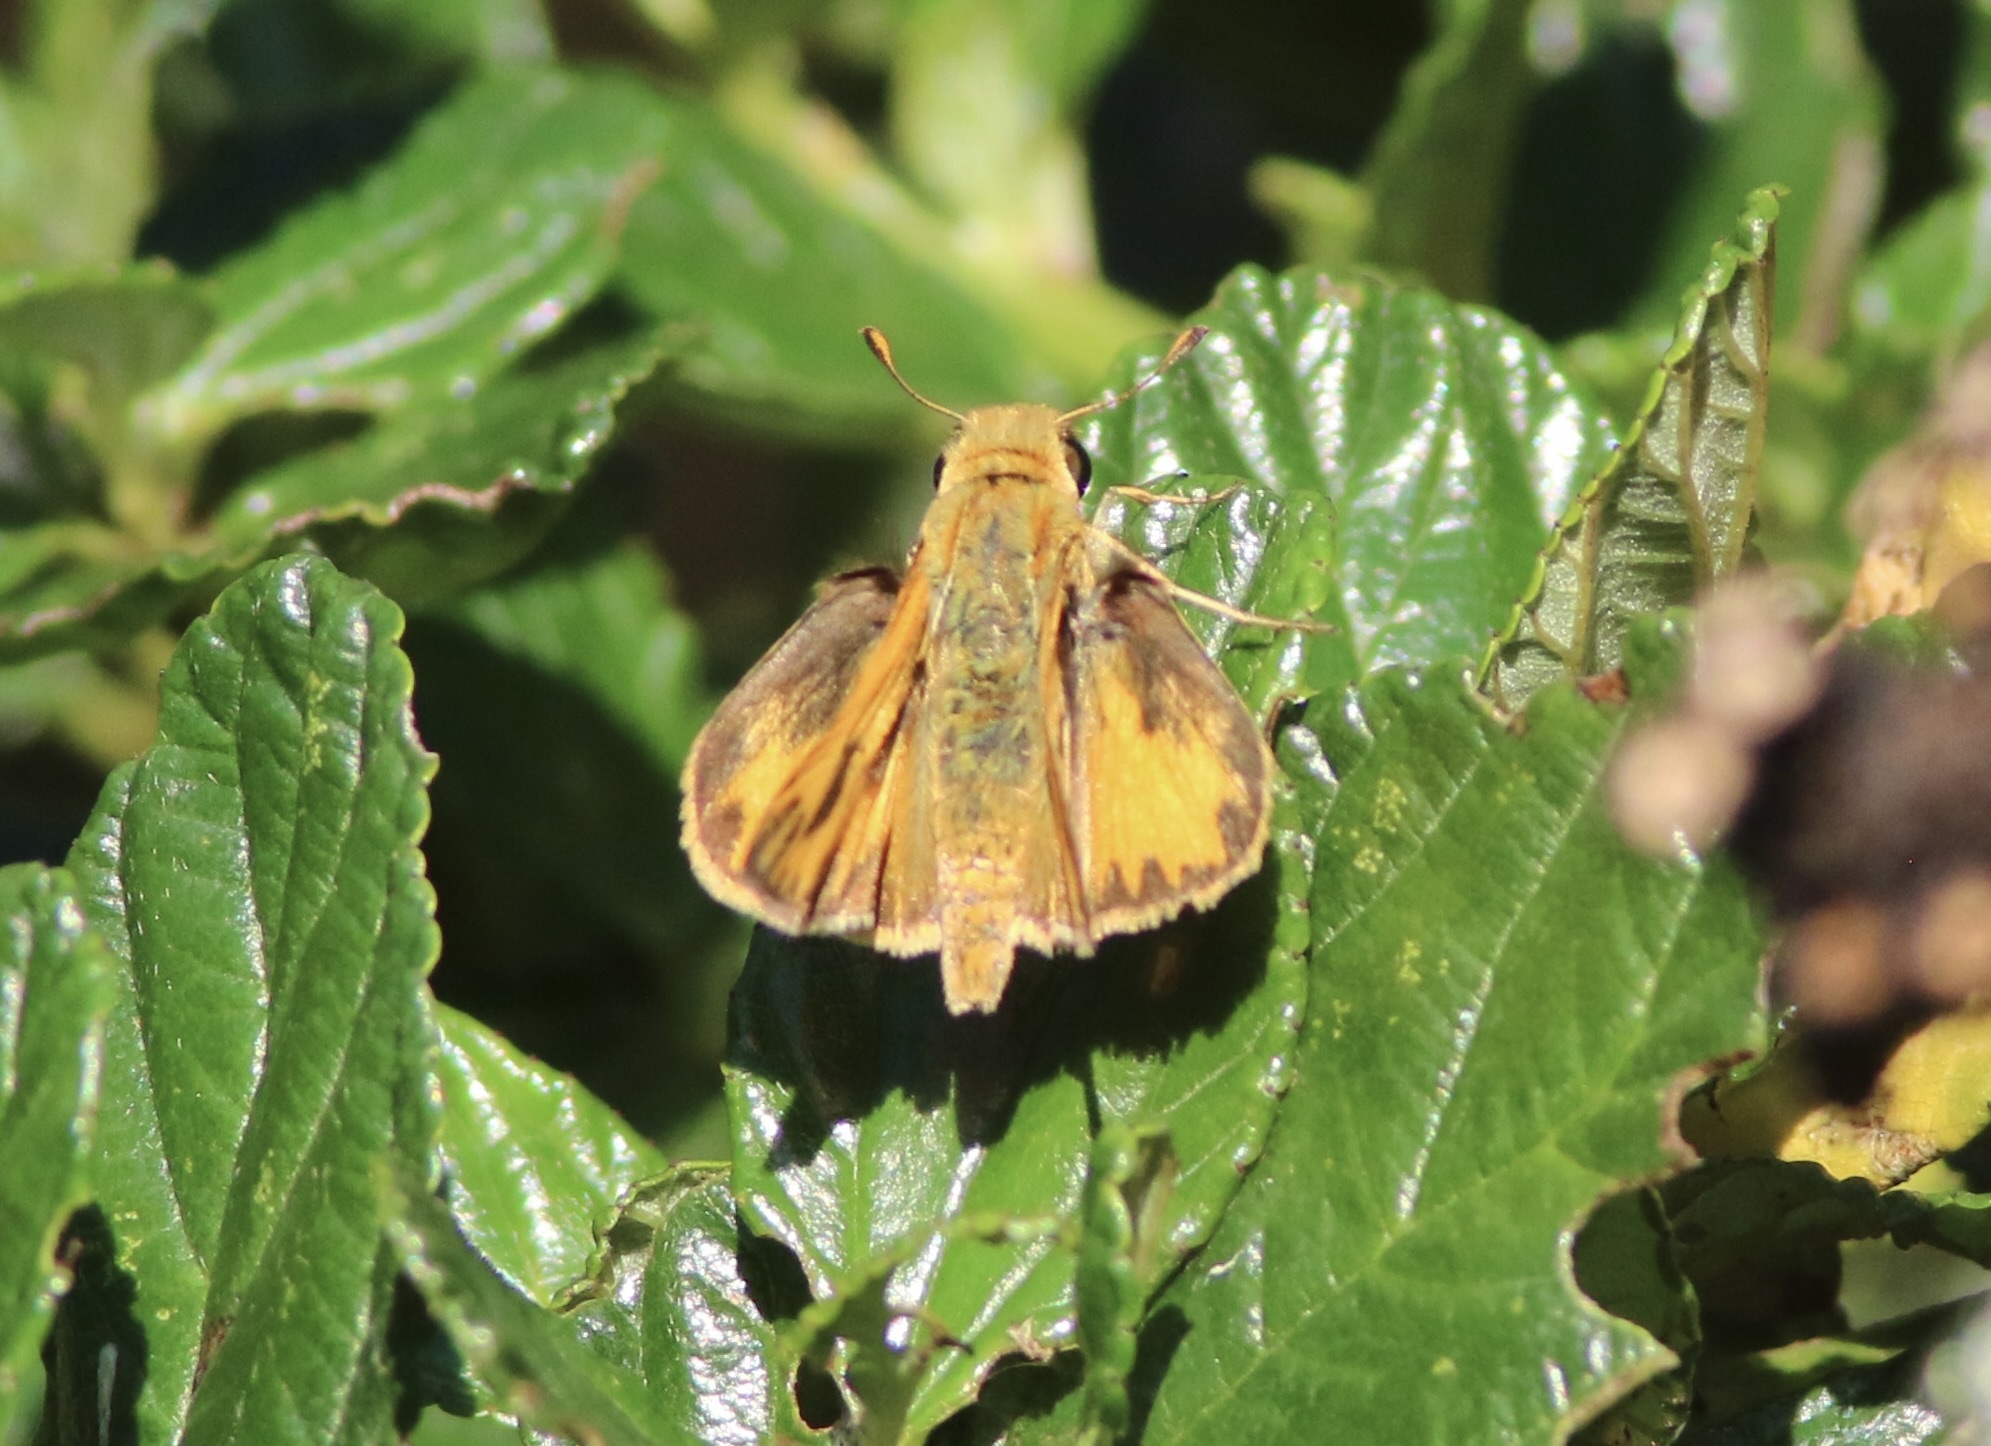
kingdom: Animalia
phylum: Arthropoda
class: Insecta
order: Lepidoptera
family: Hesperiidae
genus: Hylephila
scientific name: Hylephila phyleus
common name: Fiery skipper
